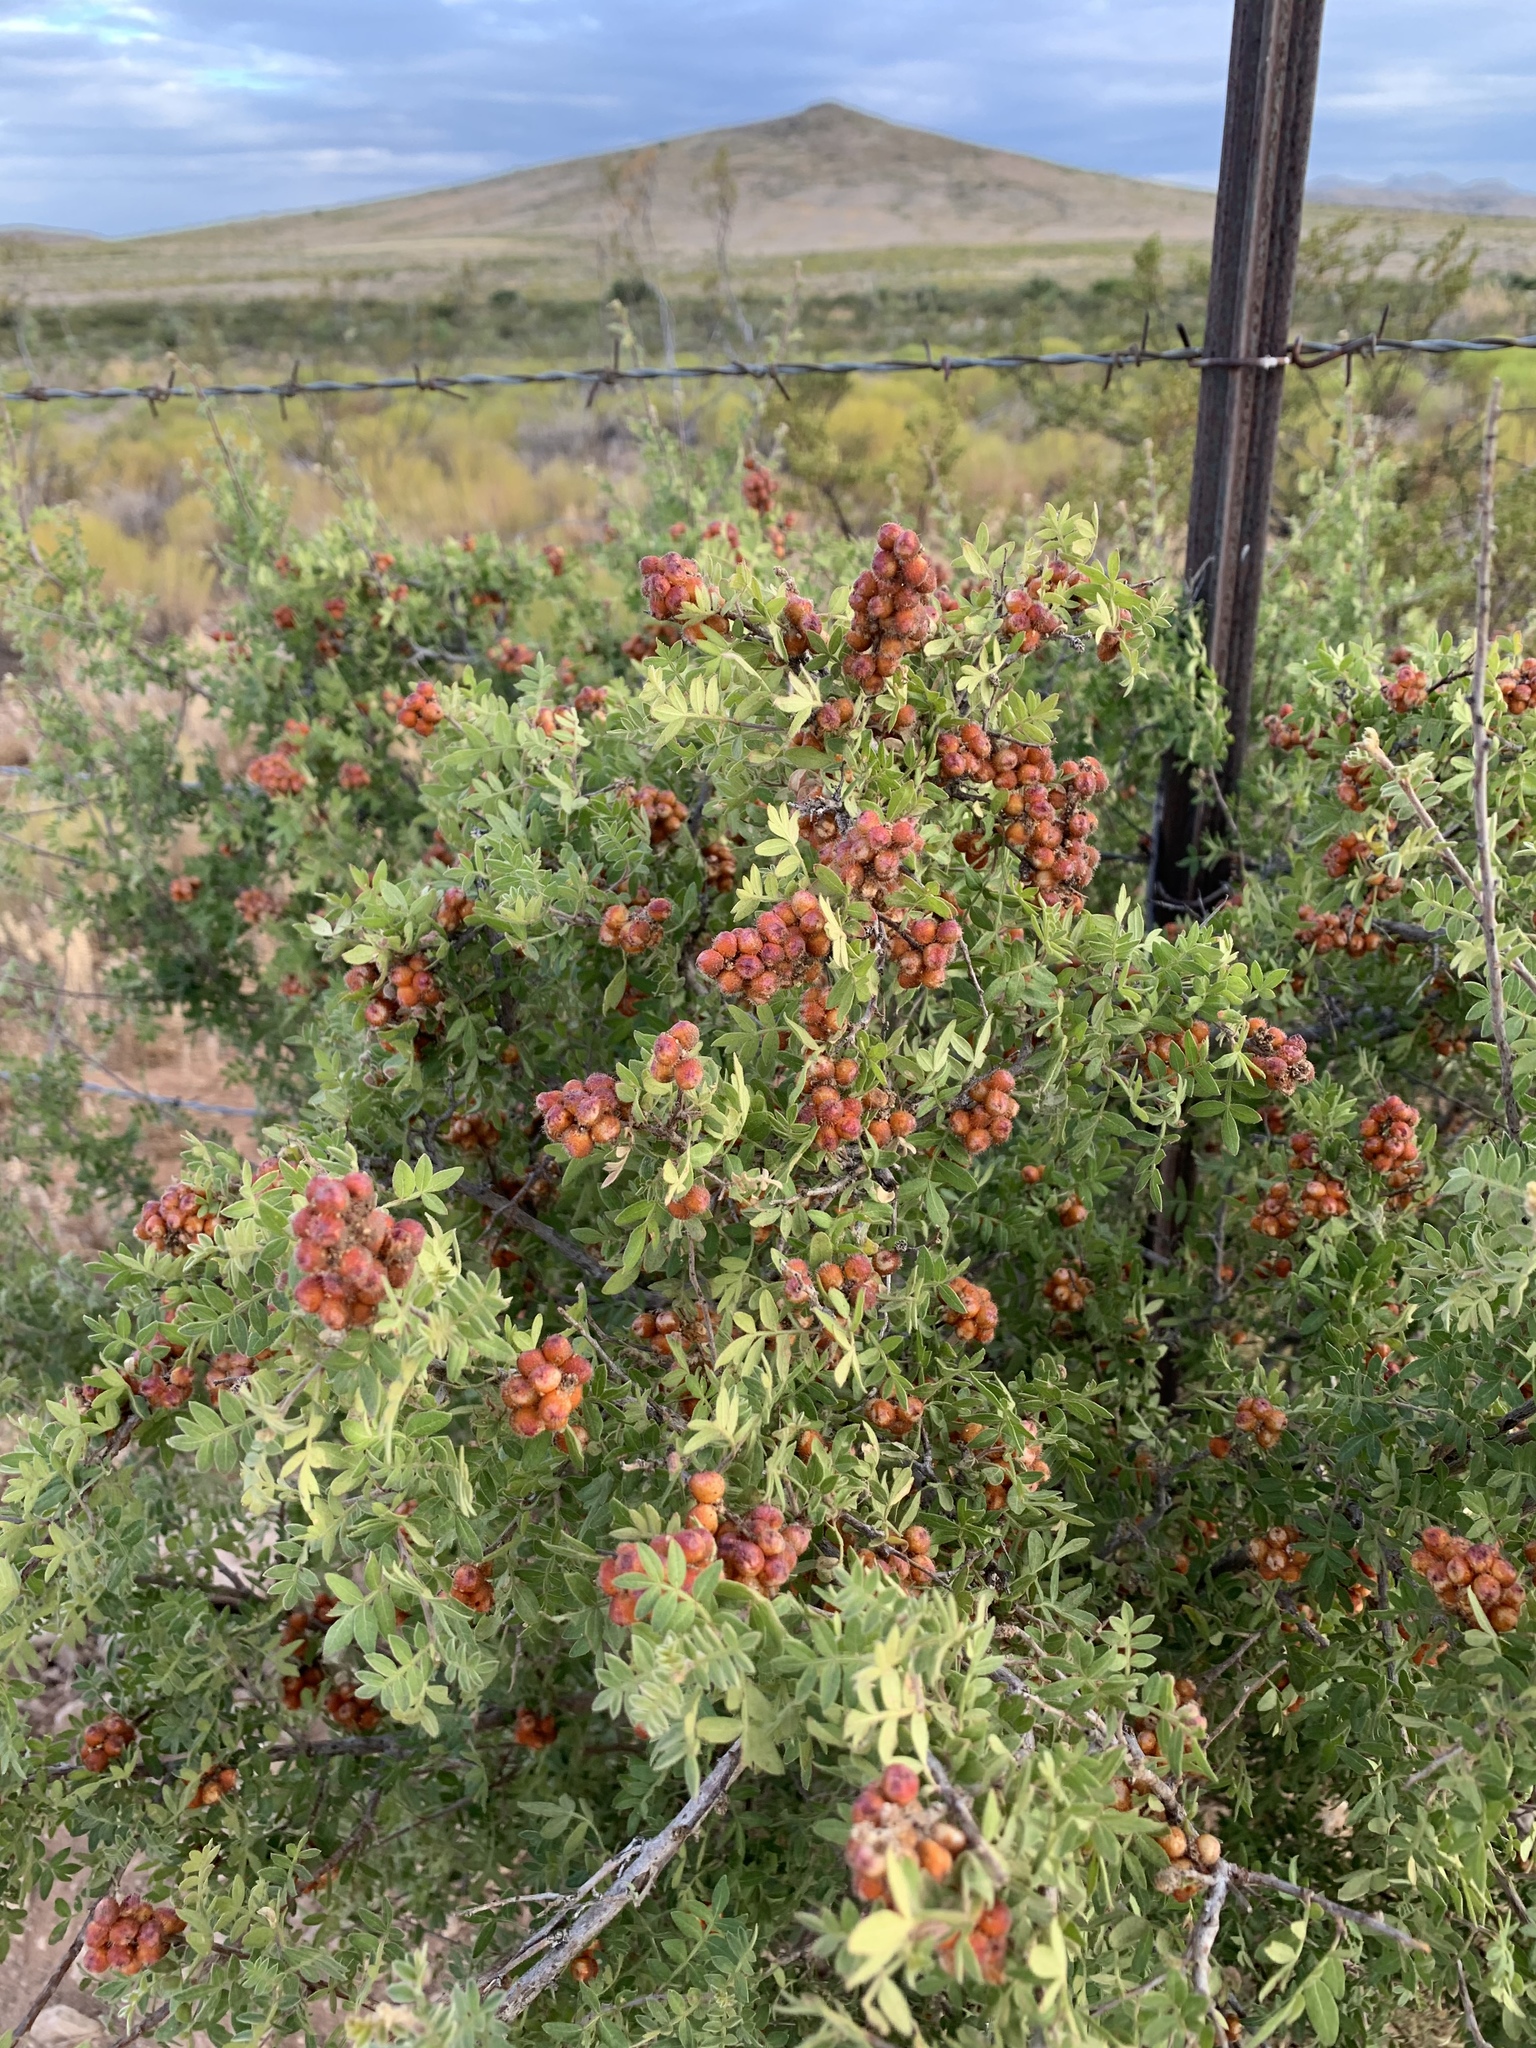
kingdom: Plantae
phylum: Tracheophyta
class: Magnoliopsida
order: Sapindales
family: Anacardiaceae
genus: Rhus
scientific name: Rhus microphylla
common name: Desert sumac
